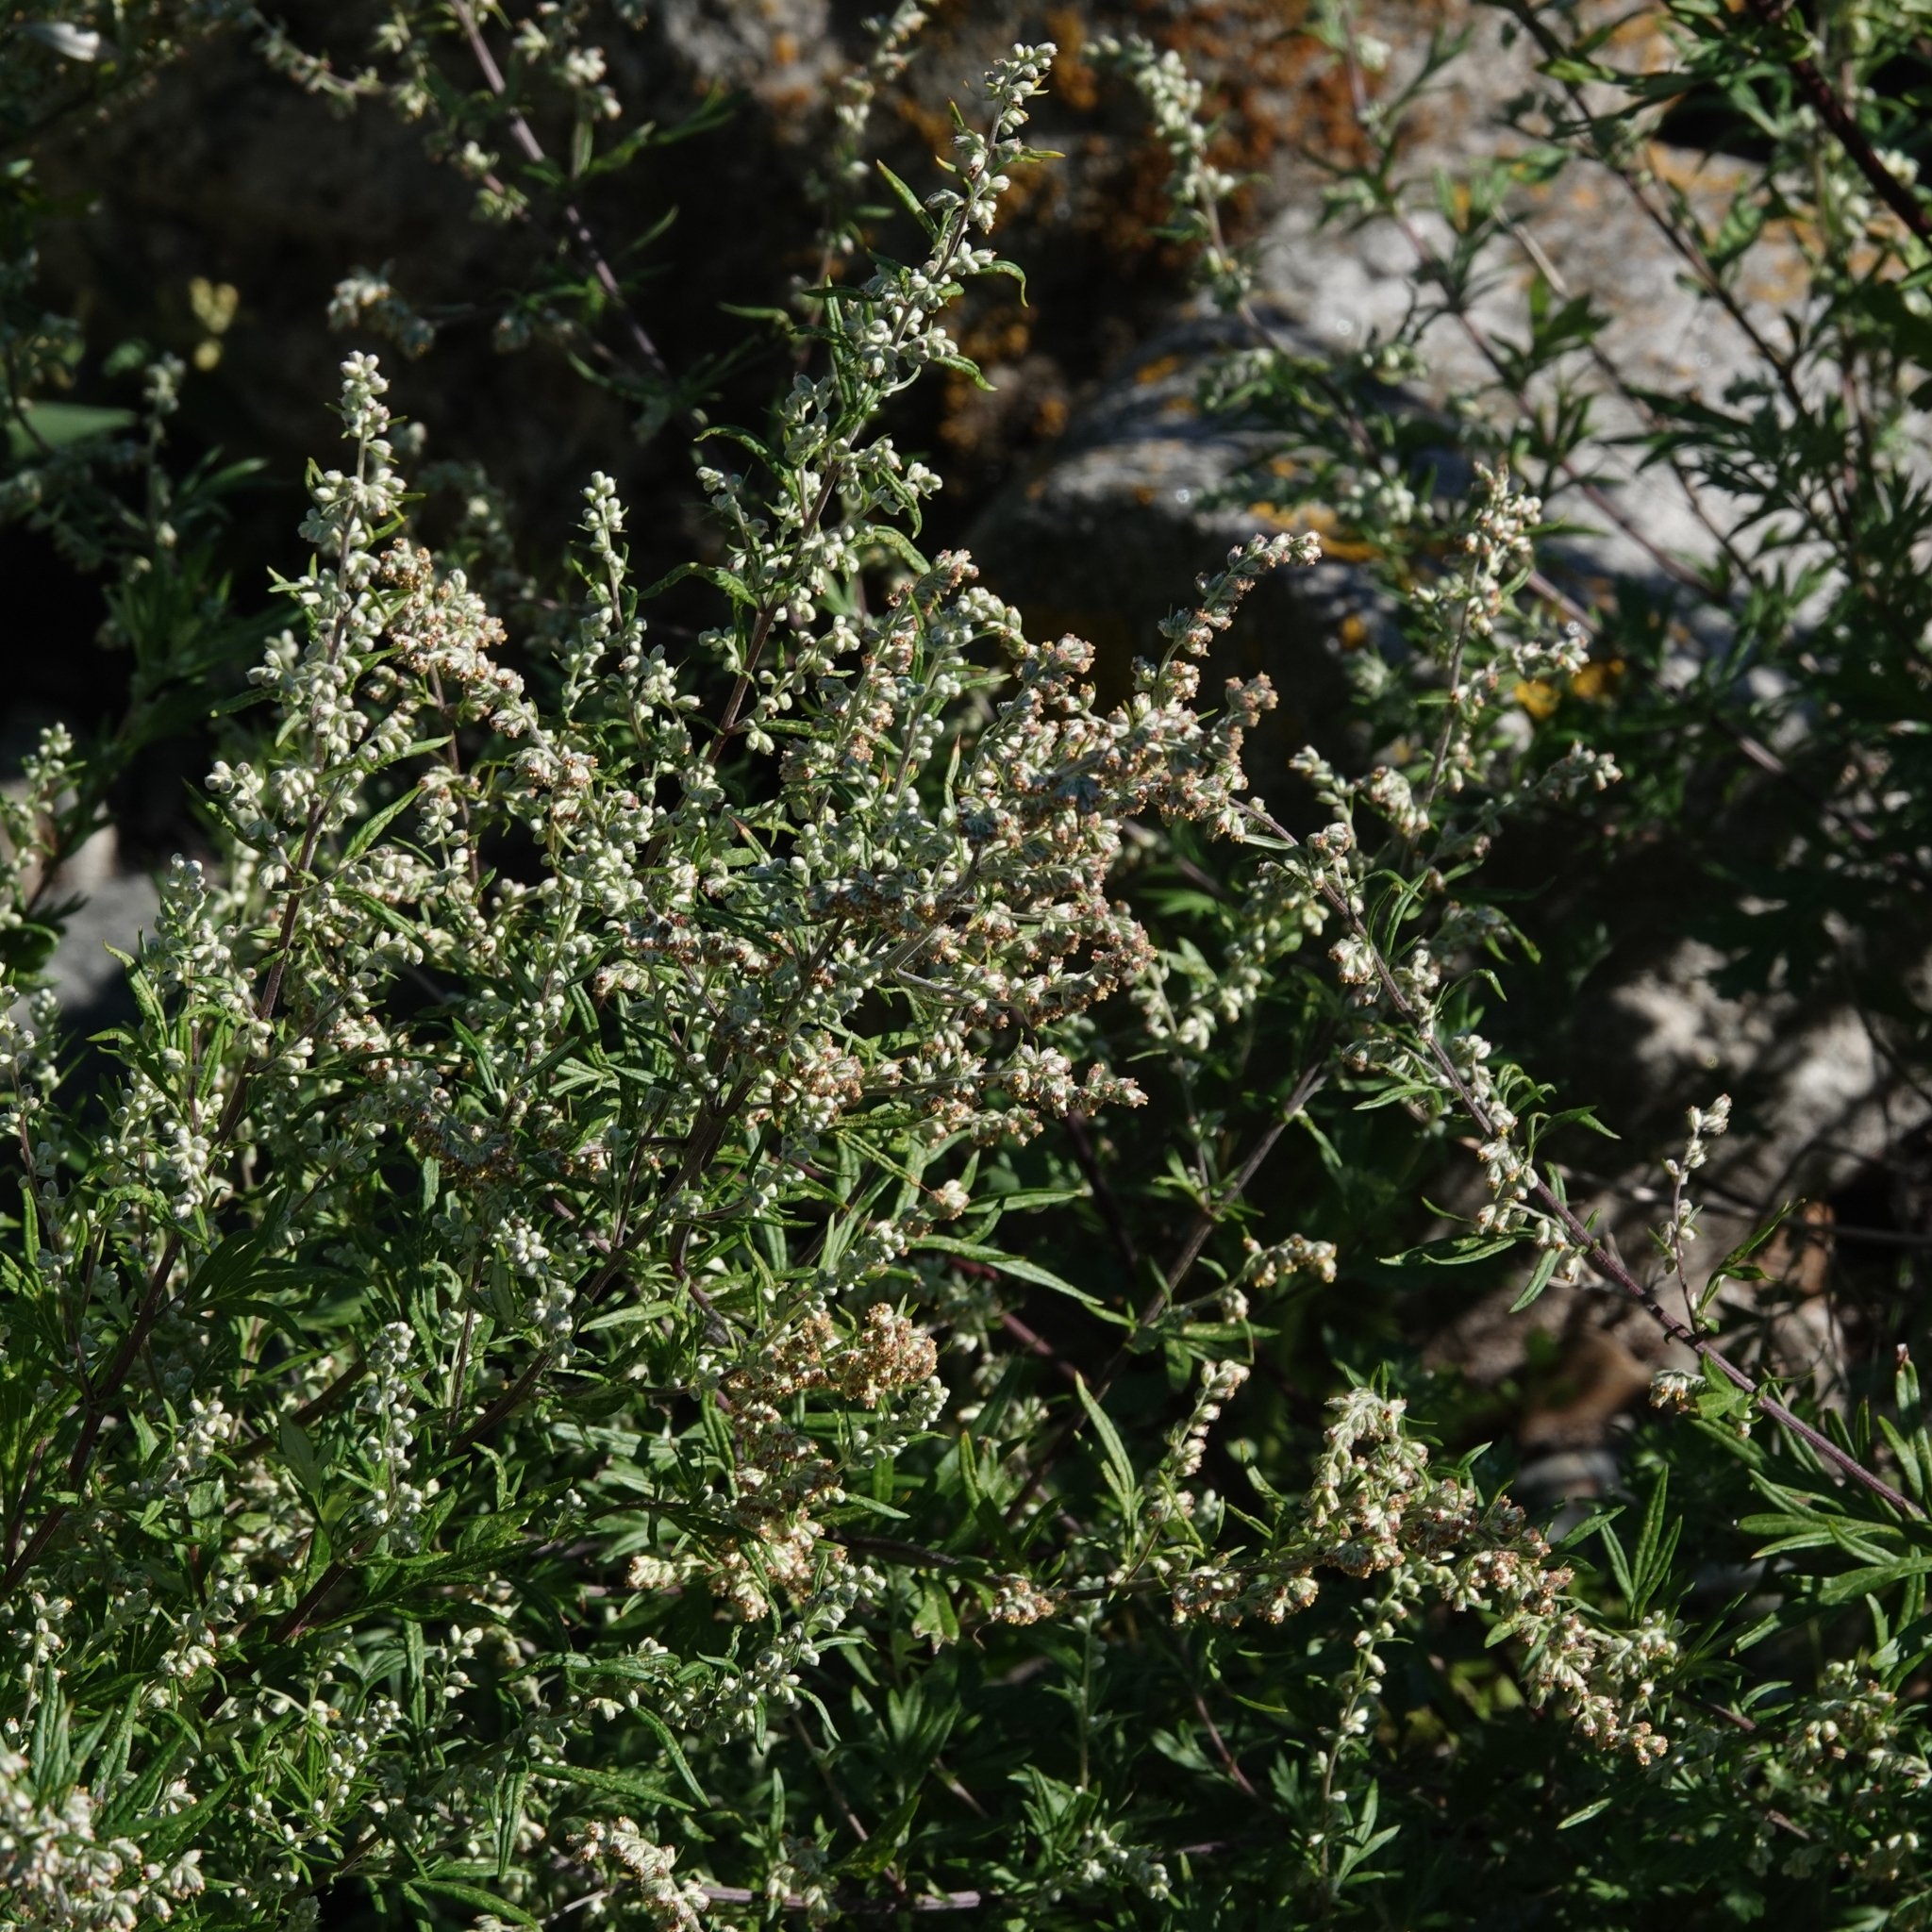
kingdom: Plantae
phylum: Tracheophyta
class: Magnoliopsida
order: Asterales
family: Asteraceae
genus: Artemisia
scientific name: Artemisia vulgaris
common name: Mugwort
